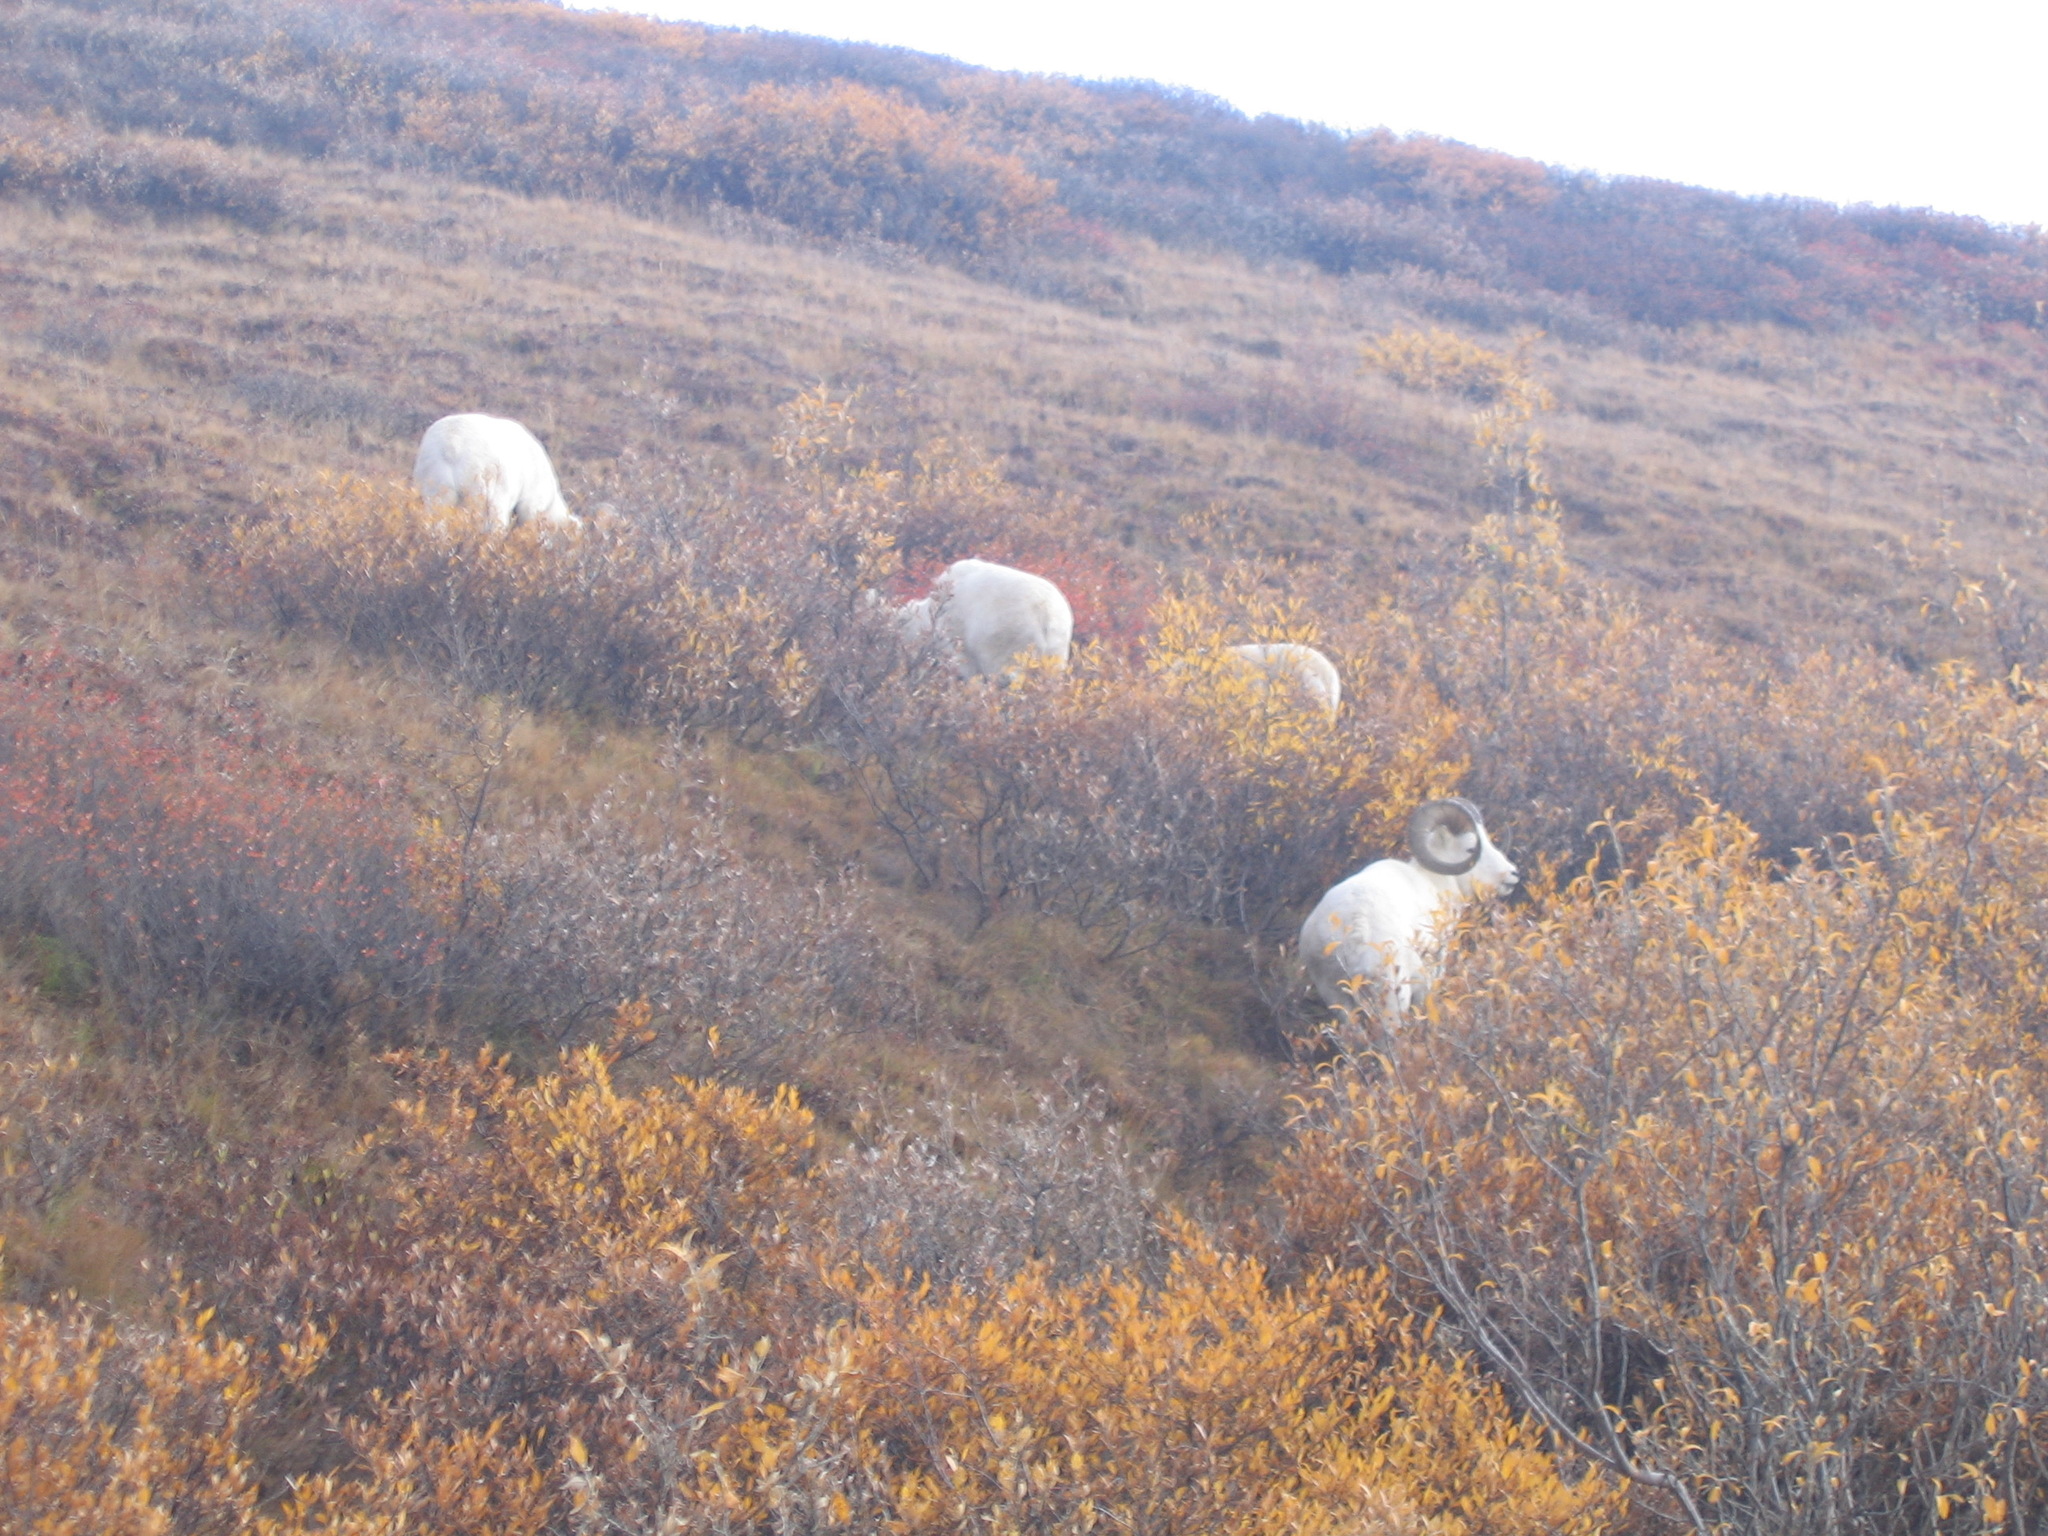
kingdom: Animalia
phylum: Chordata
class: Mammalia
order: Artiodactyla
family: Bovidae
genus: Ovis
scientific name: Ovis dalli
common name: Dall's sheep
